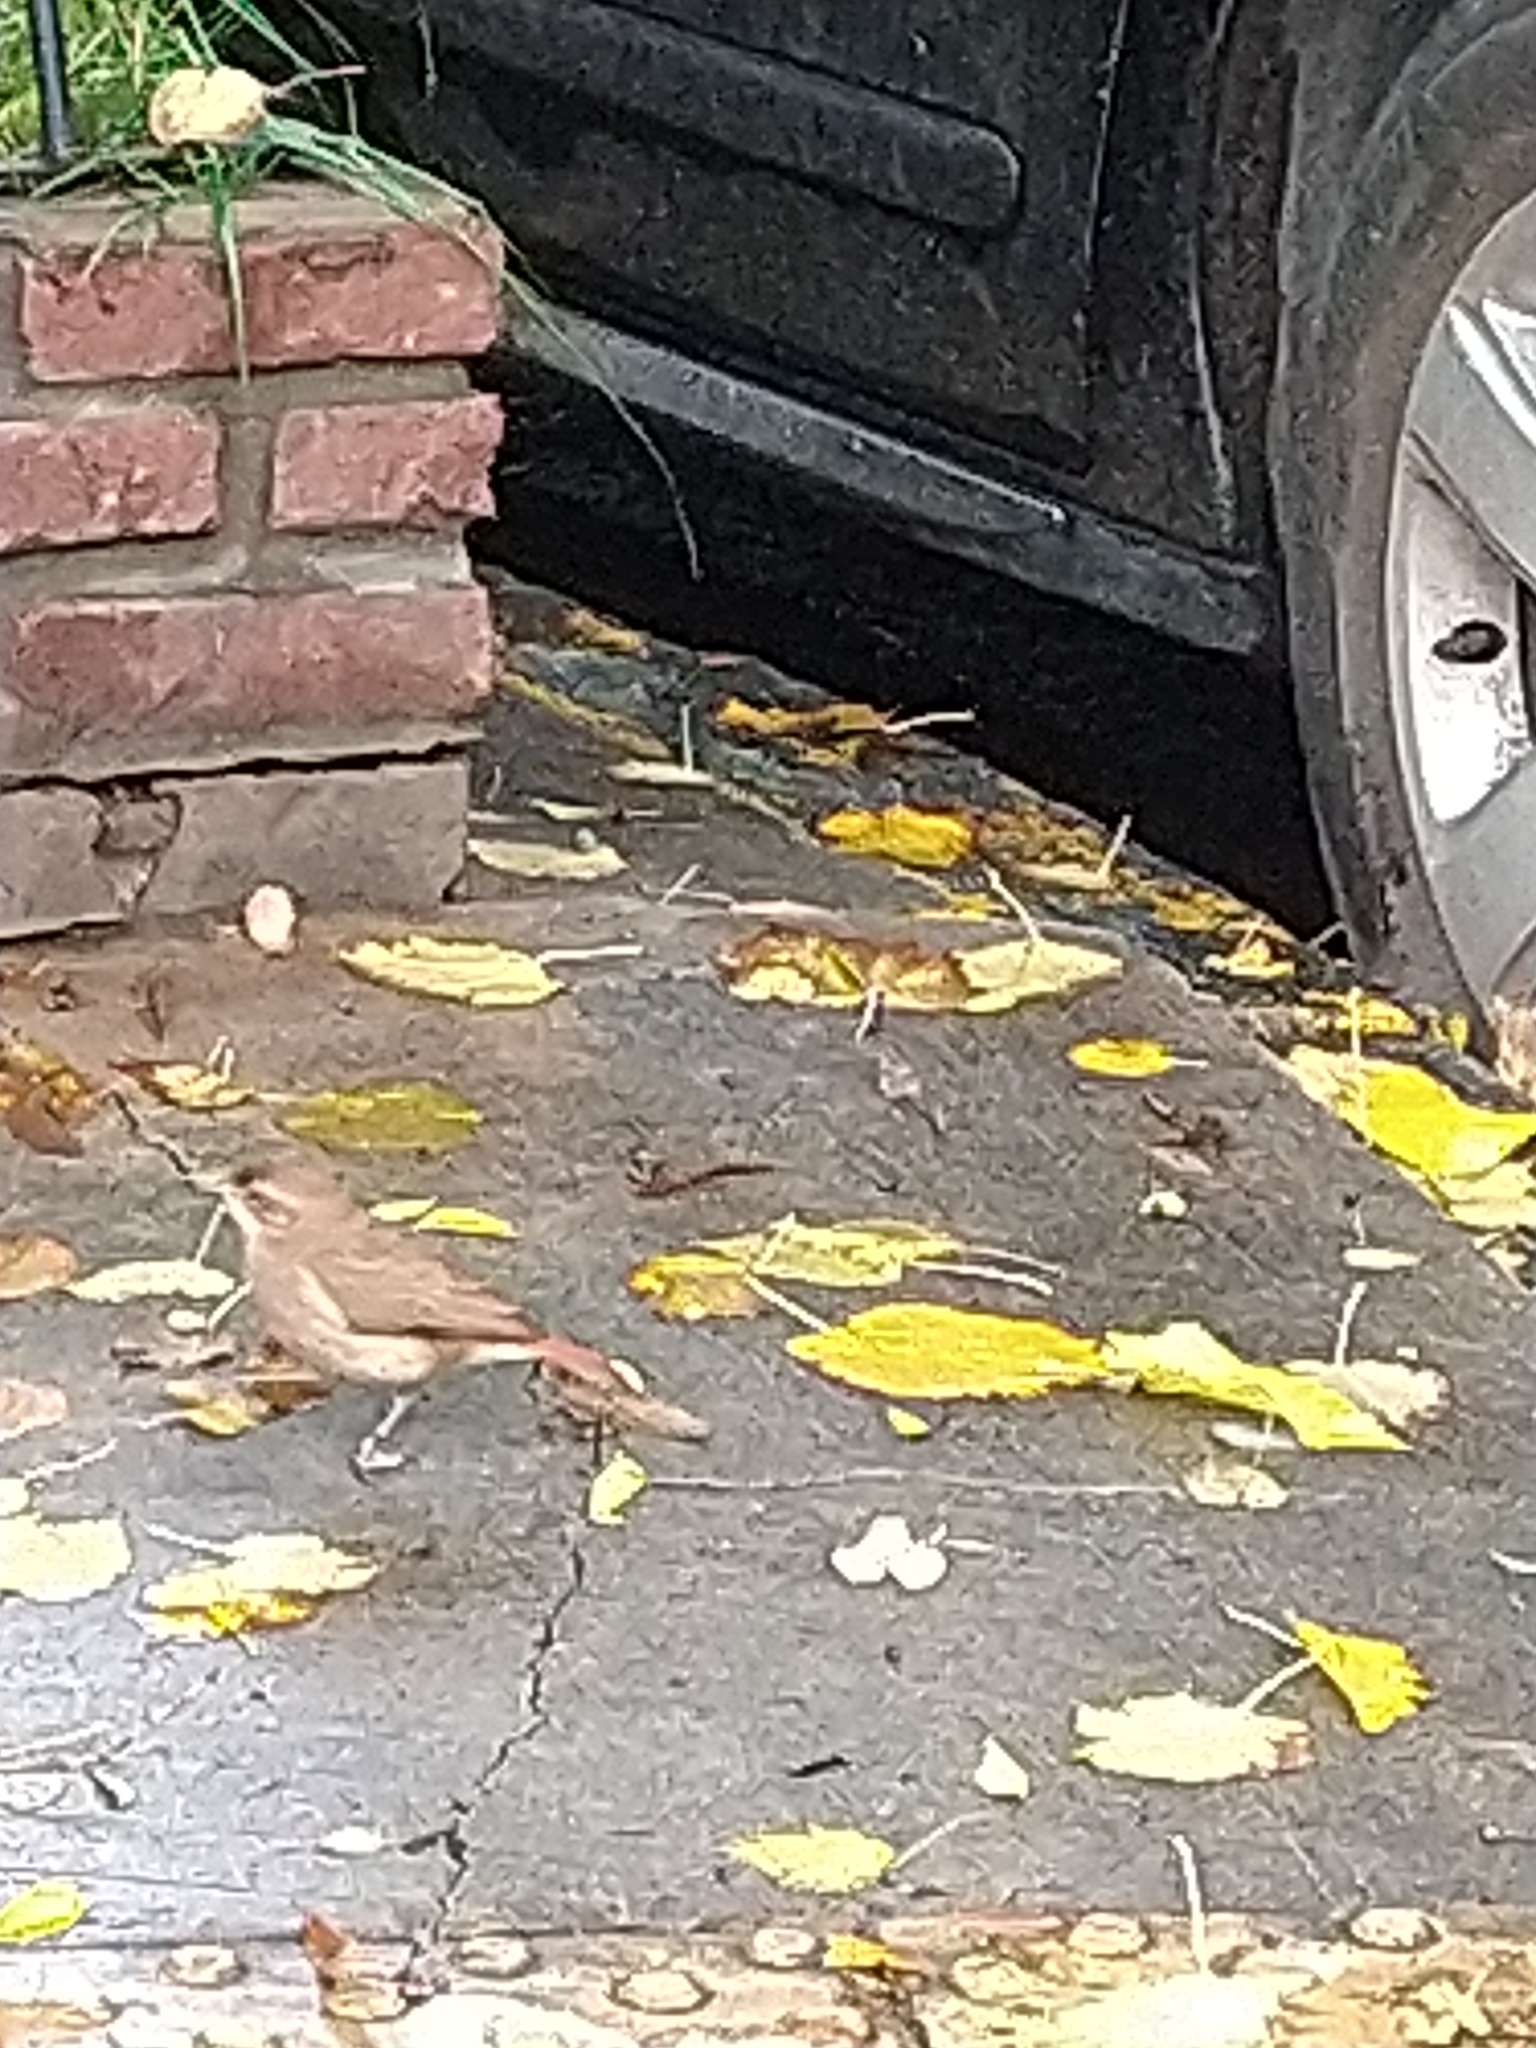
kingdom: Animalia
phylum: Chordata
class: Aves
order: Passeriformes
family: Furnariidae
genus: Furnarius
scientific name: Furnarius rufus
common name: Rufous hornero
